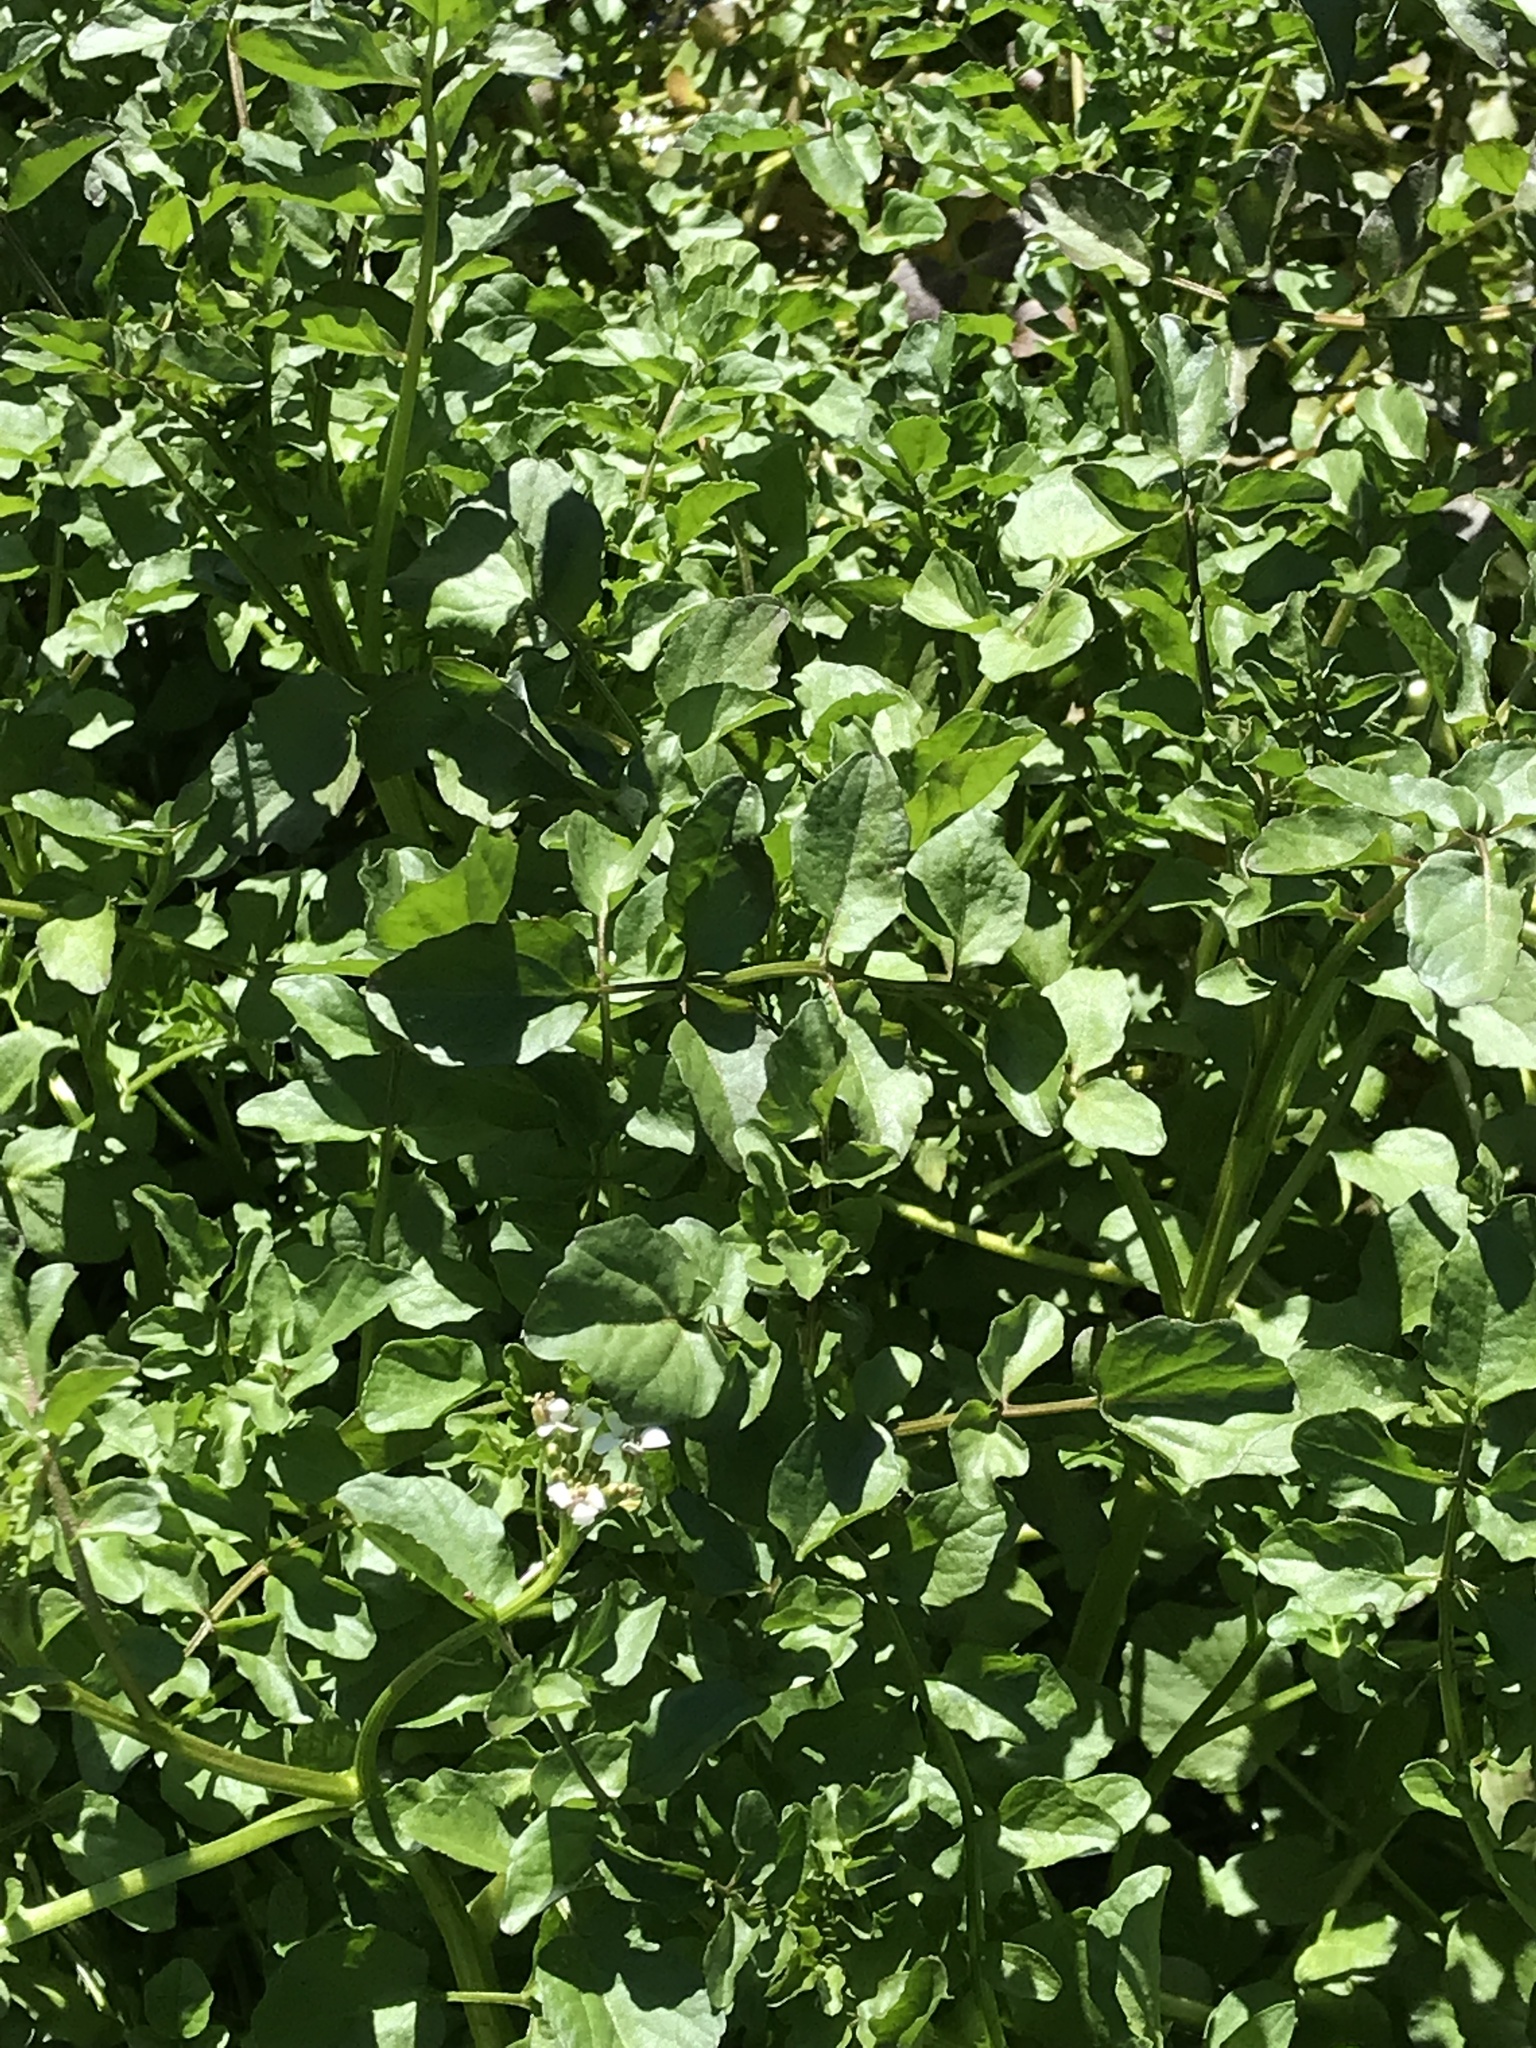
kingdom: Plantae
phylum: Tracheophyta
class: Magnoliopsida
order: Brassicales
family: Brassicaceae
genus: Nasturtium
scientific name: Nasturtium officinale
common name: Watercress
